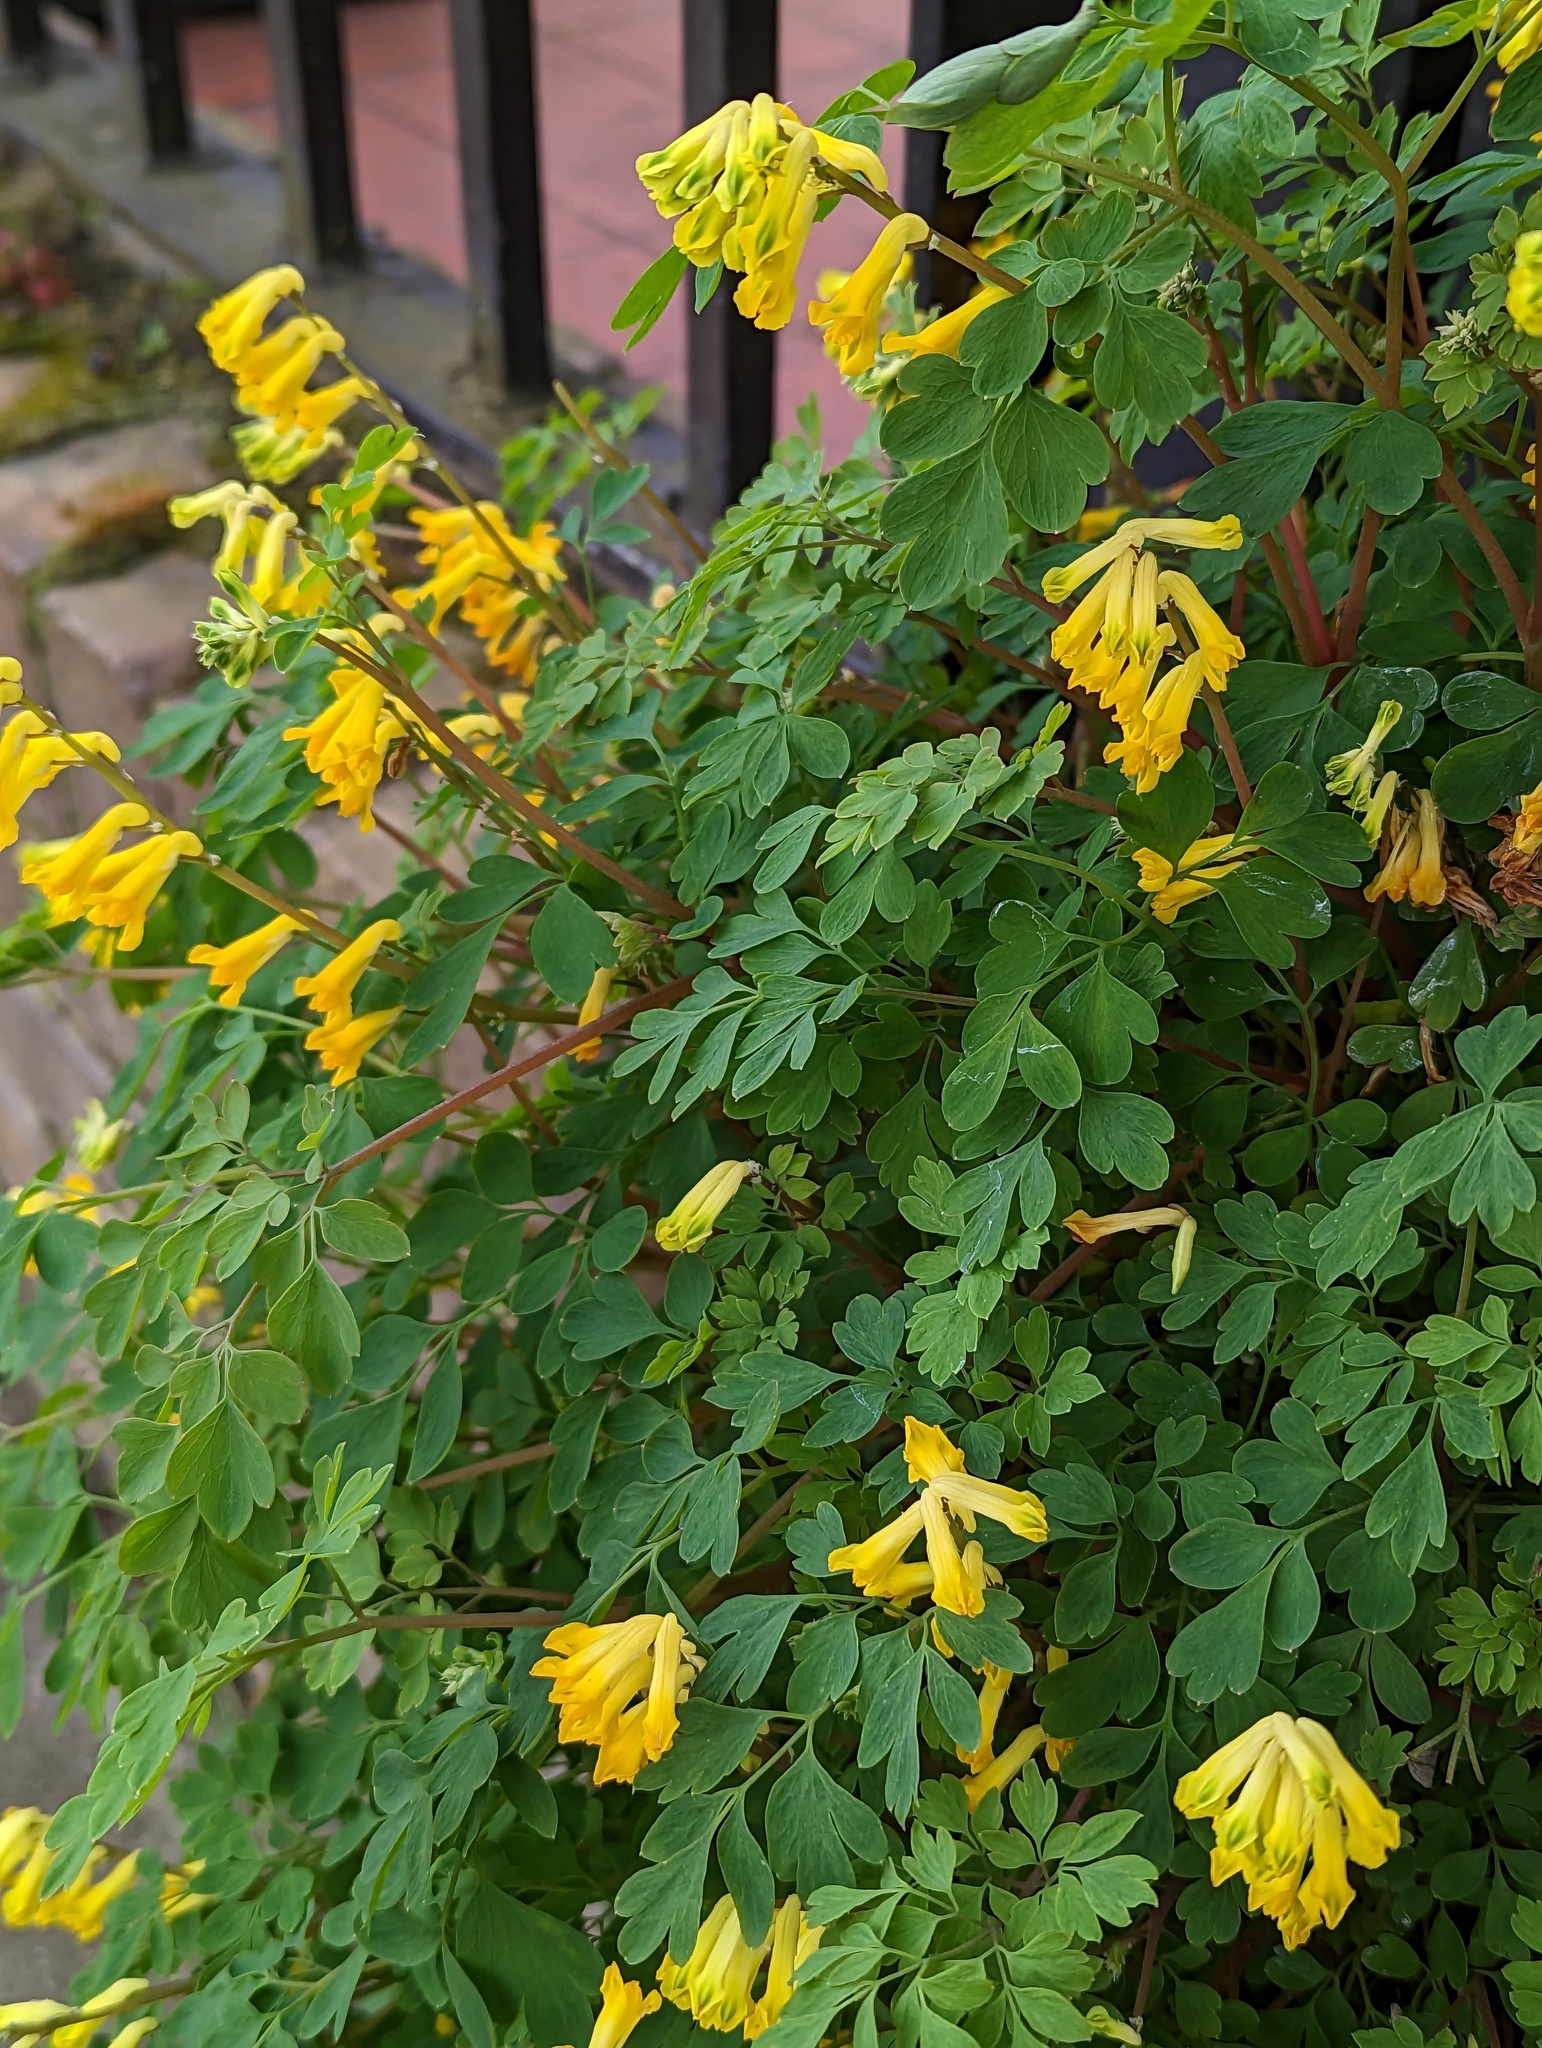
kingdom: Plantae
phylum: Tracheophyta
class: Magnoliopsida
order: Ranunculales
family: Papaveraceae
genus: Pseudofumaria
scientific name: Pseudofumaria lutea
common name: Yellow corydalis
